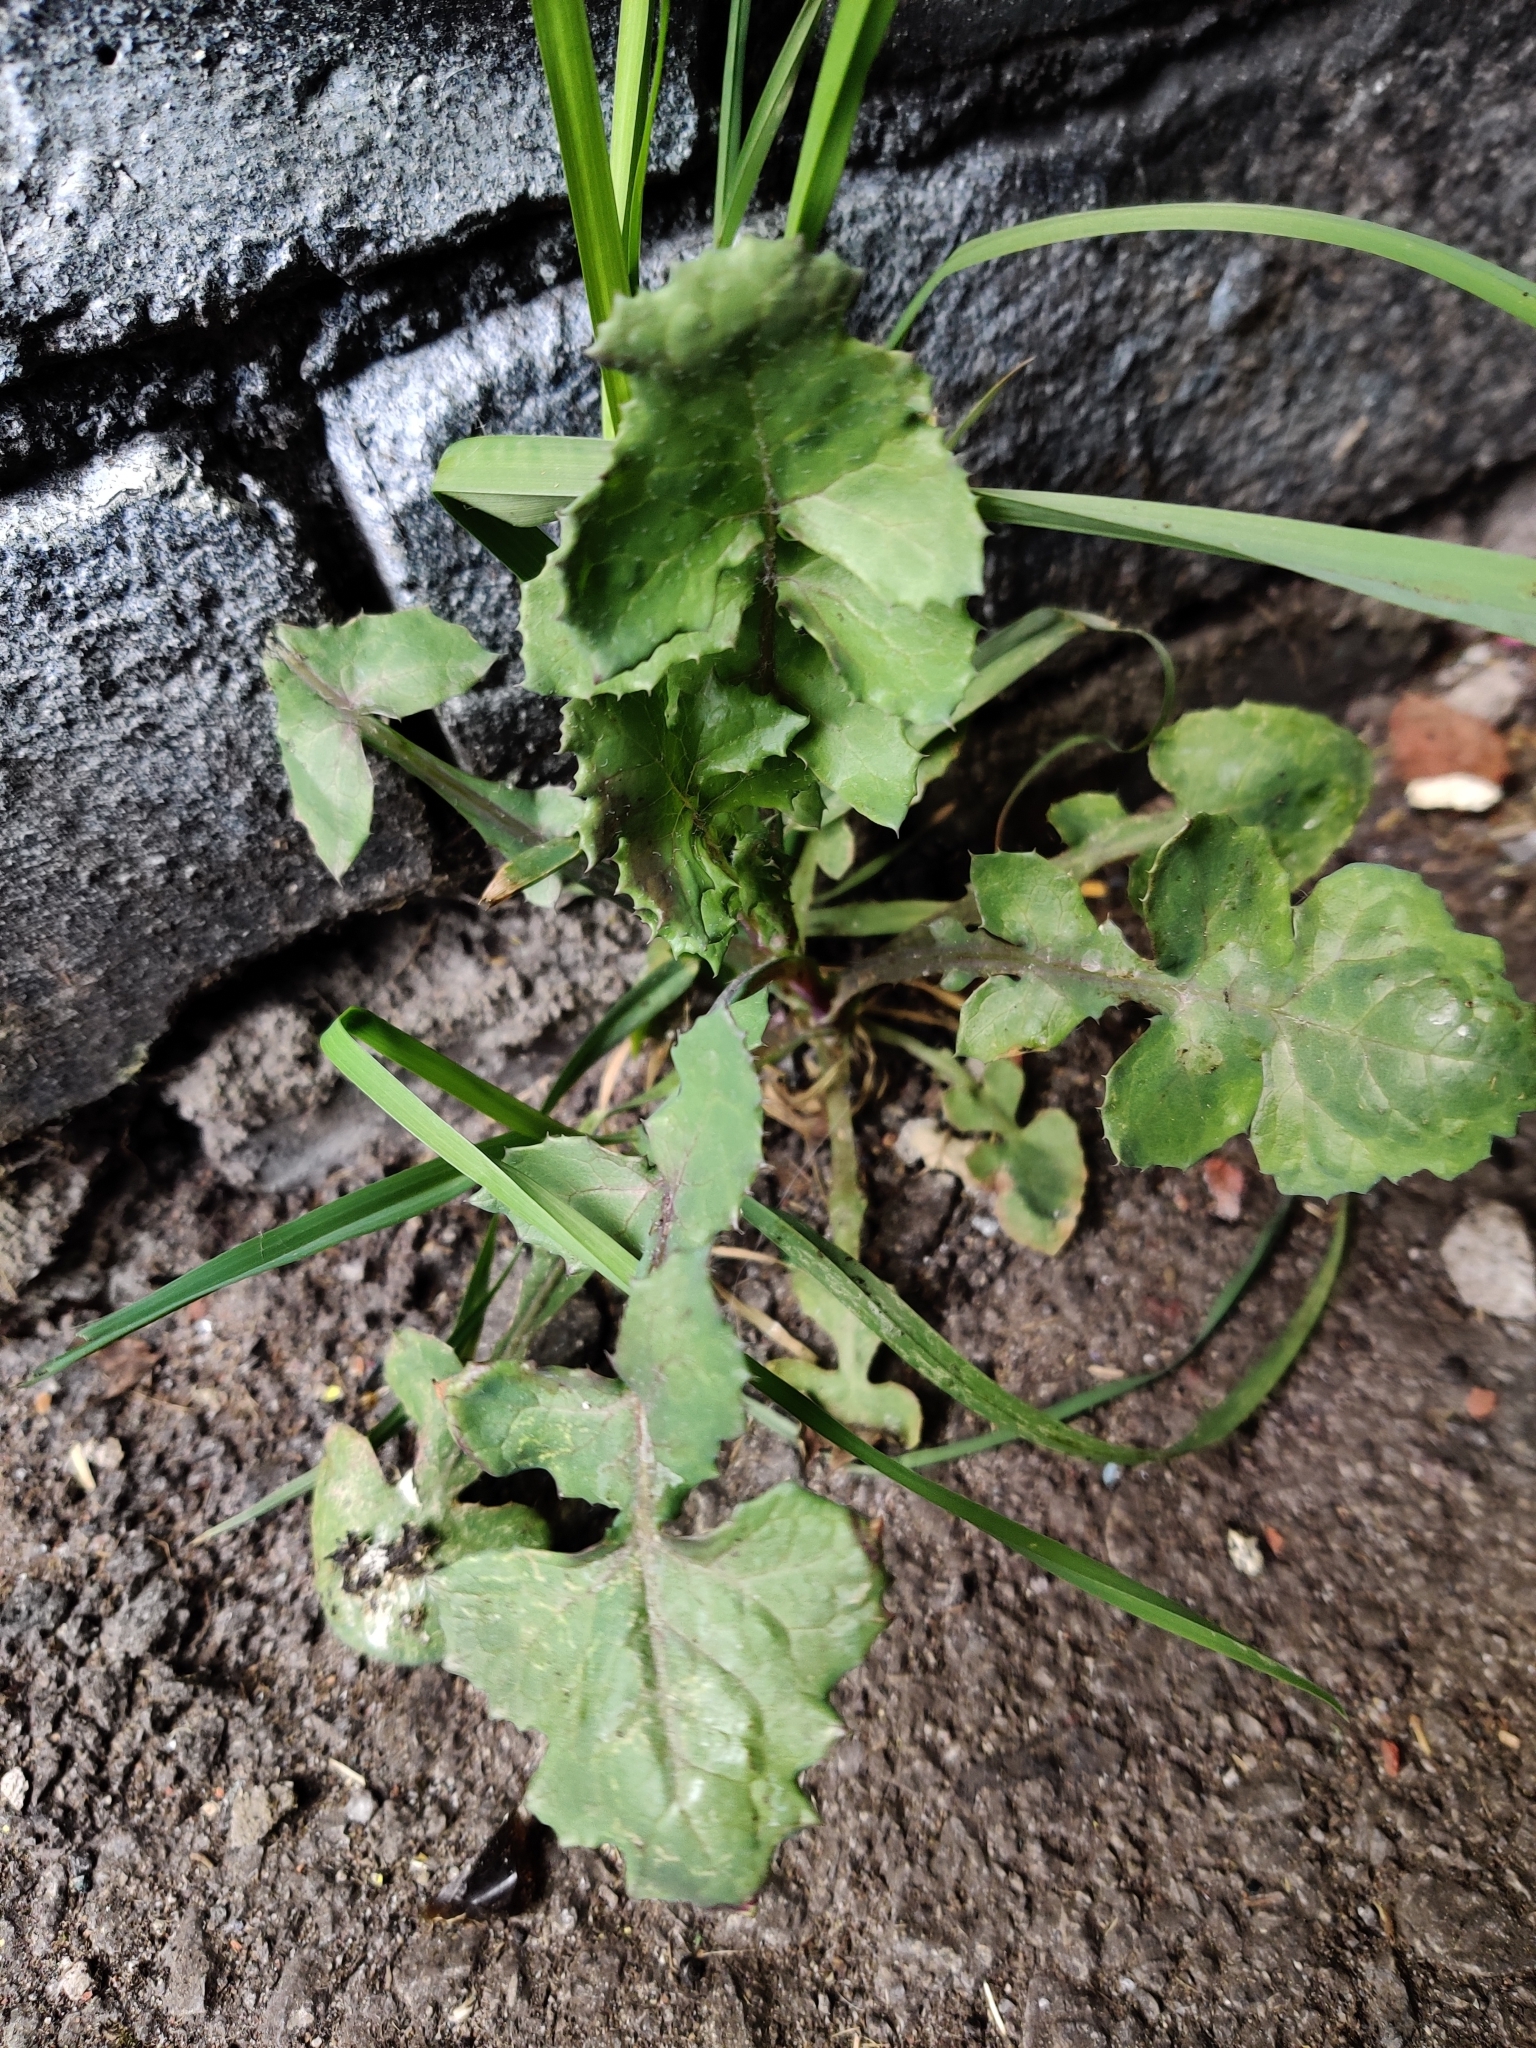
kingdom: Plantae
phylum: Tracheophyta
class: Magnoliopsida
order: Asterales
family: Asteraceae
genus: Sonchus
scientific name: Sonchus oleraceus
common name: Common sowthistle
